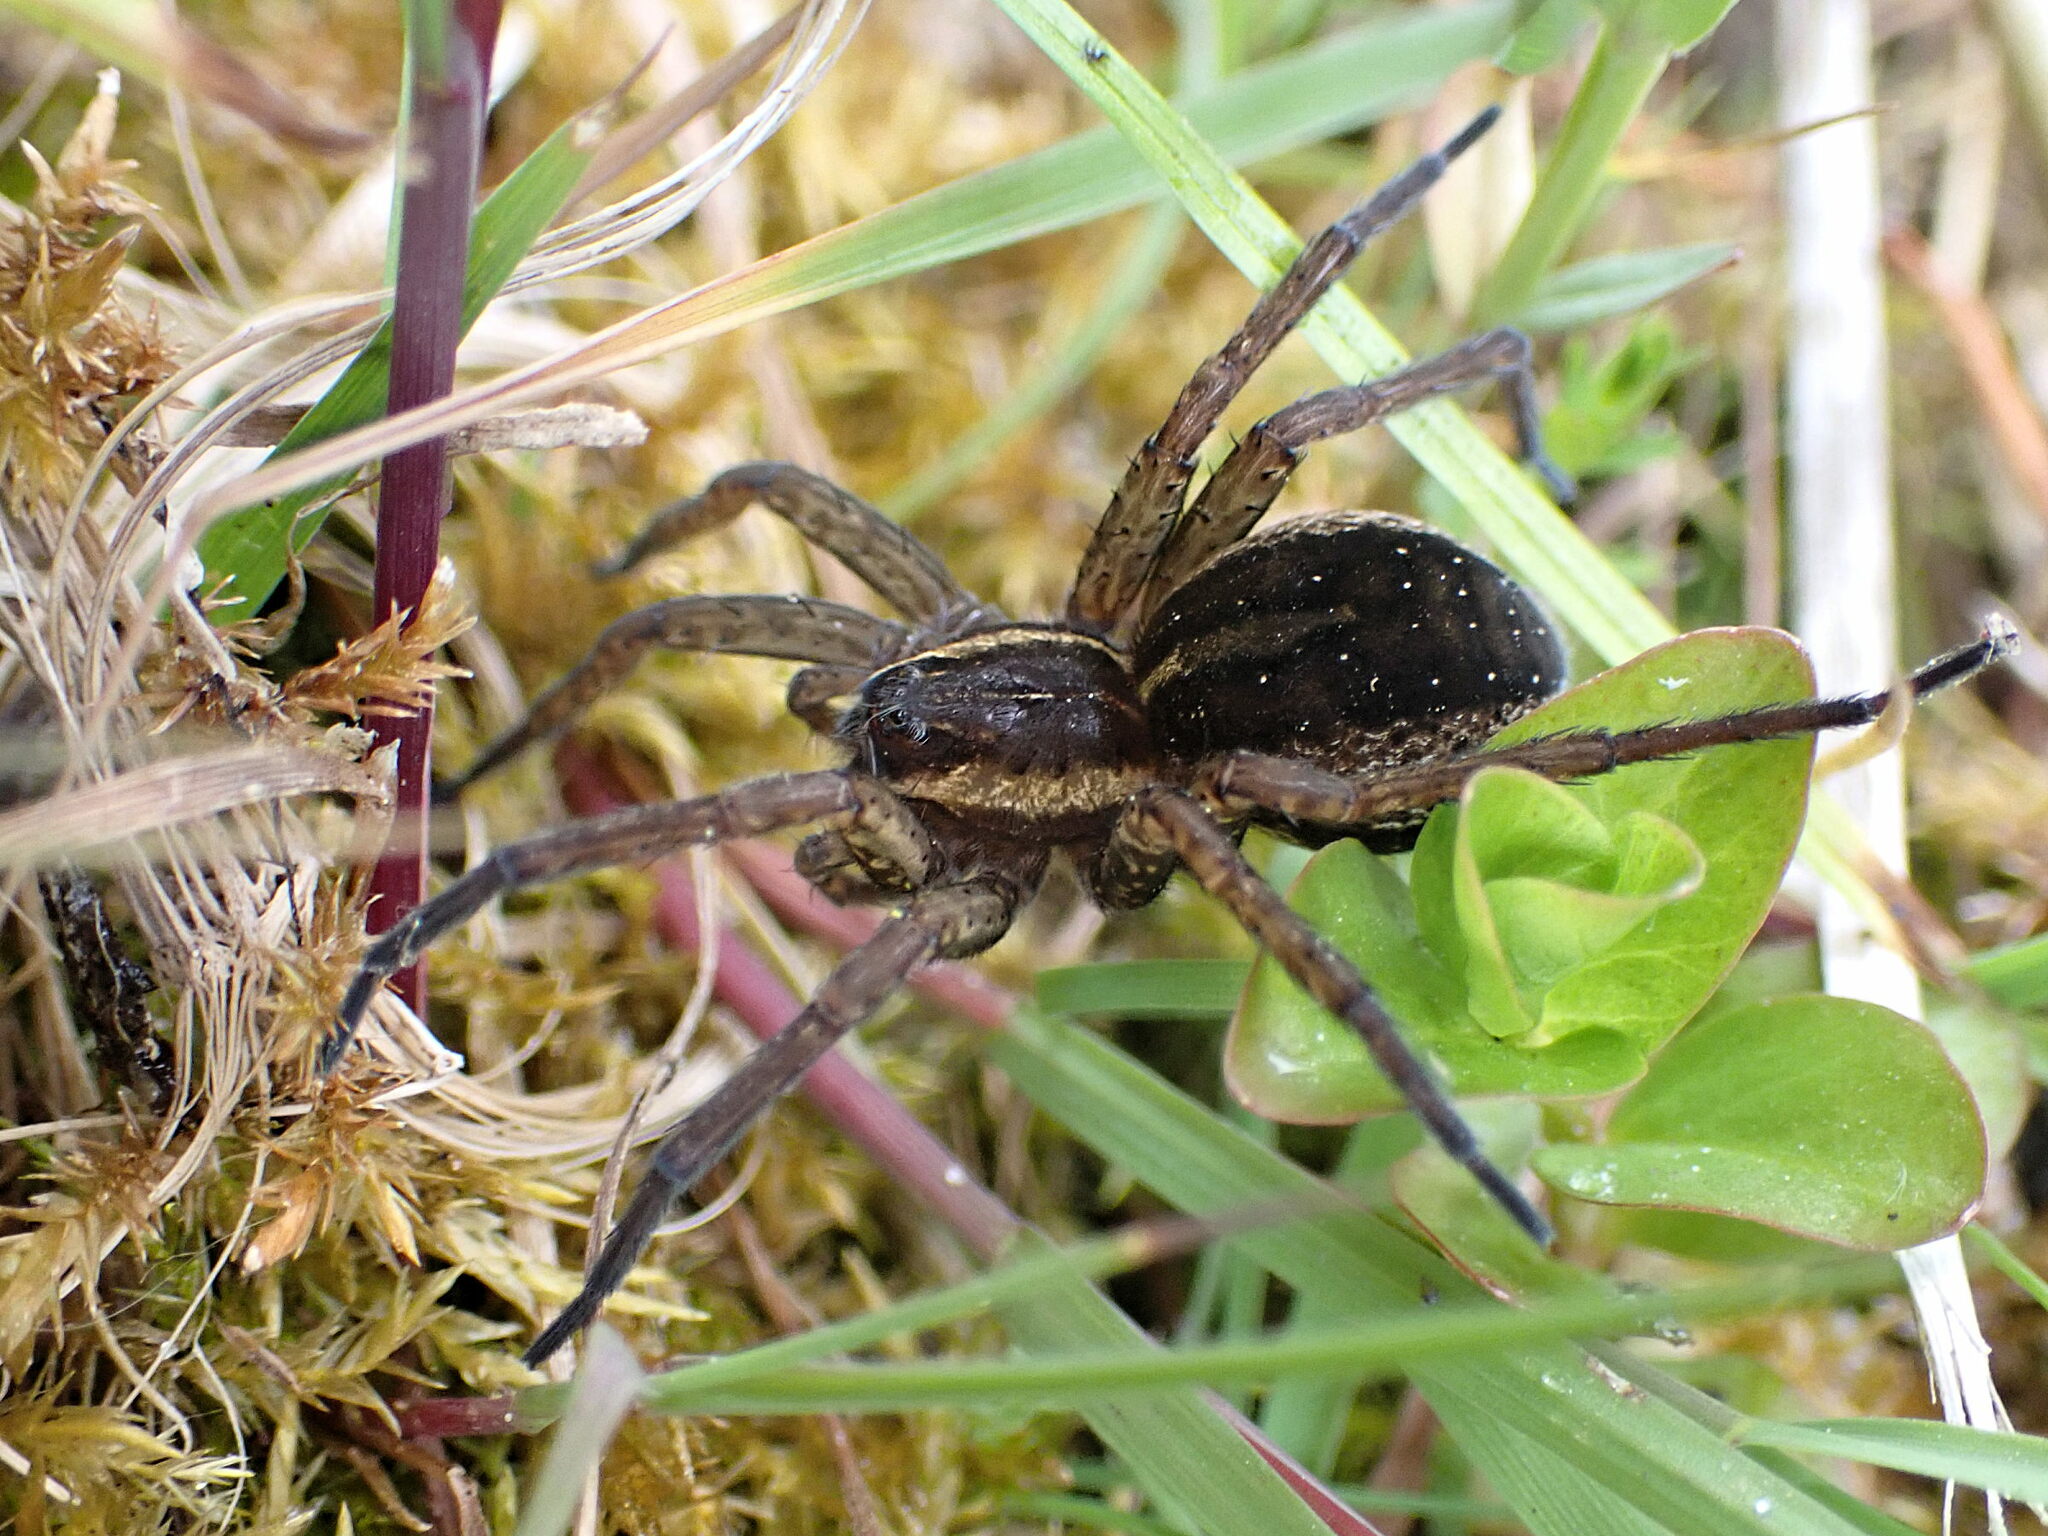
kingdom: Animalia
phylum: Arthropoda
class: Arachnida
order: Araneae
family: Pisauridae
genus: Dolomedes
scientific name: Dolomedes
